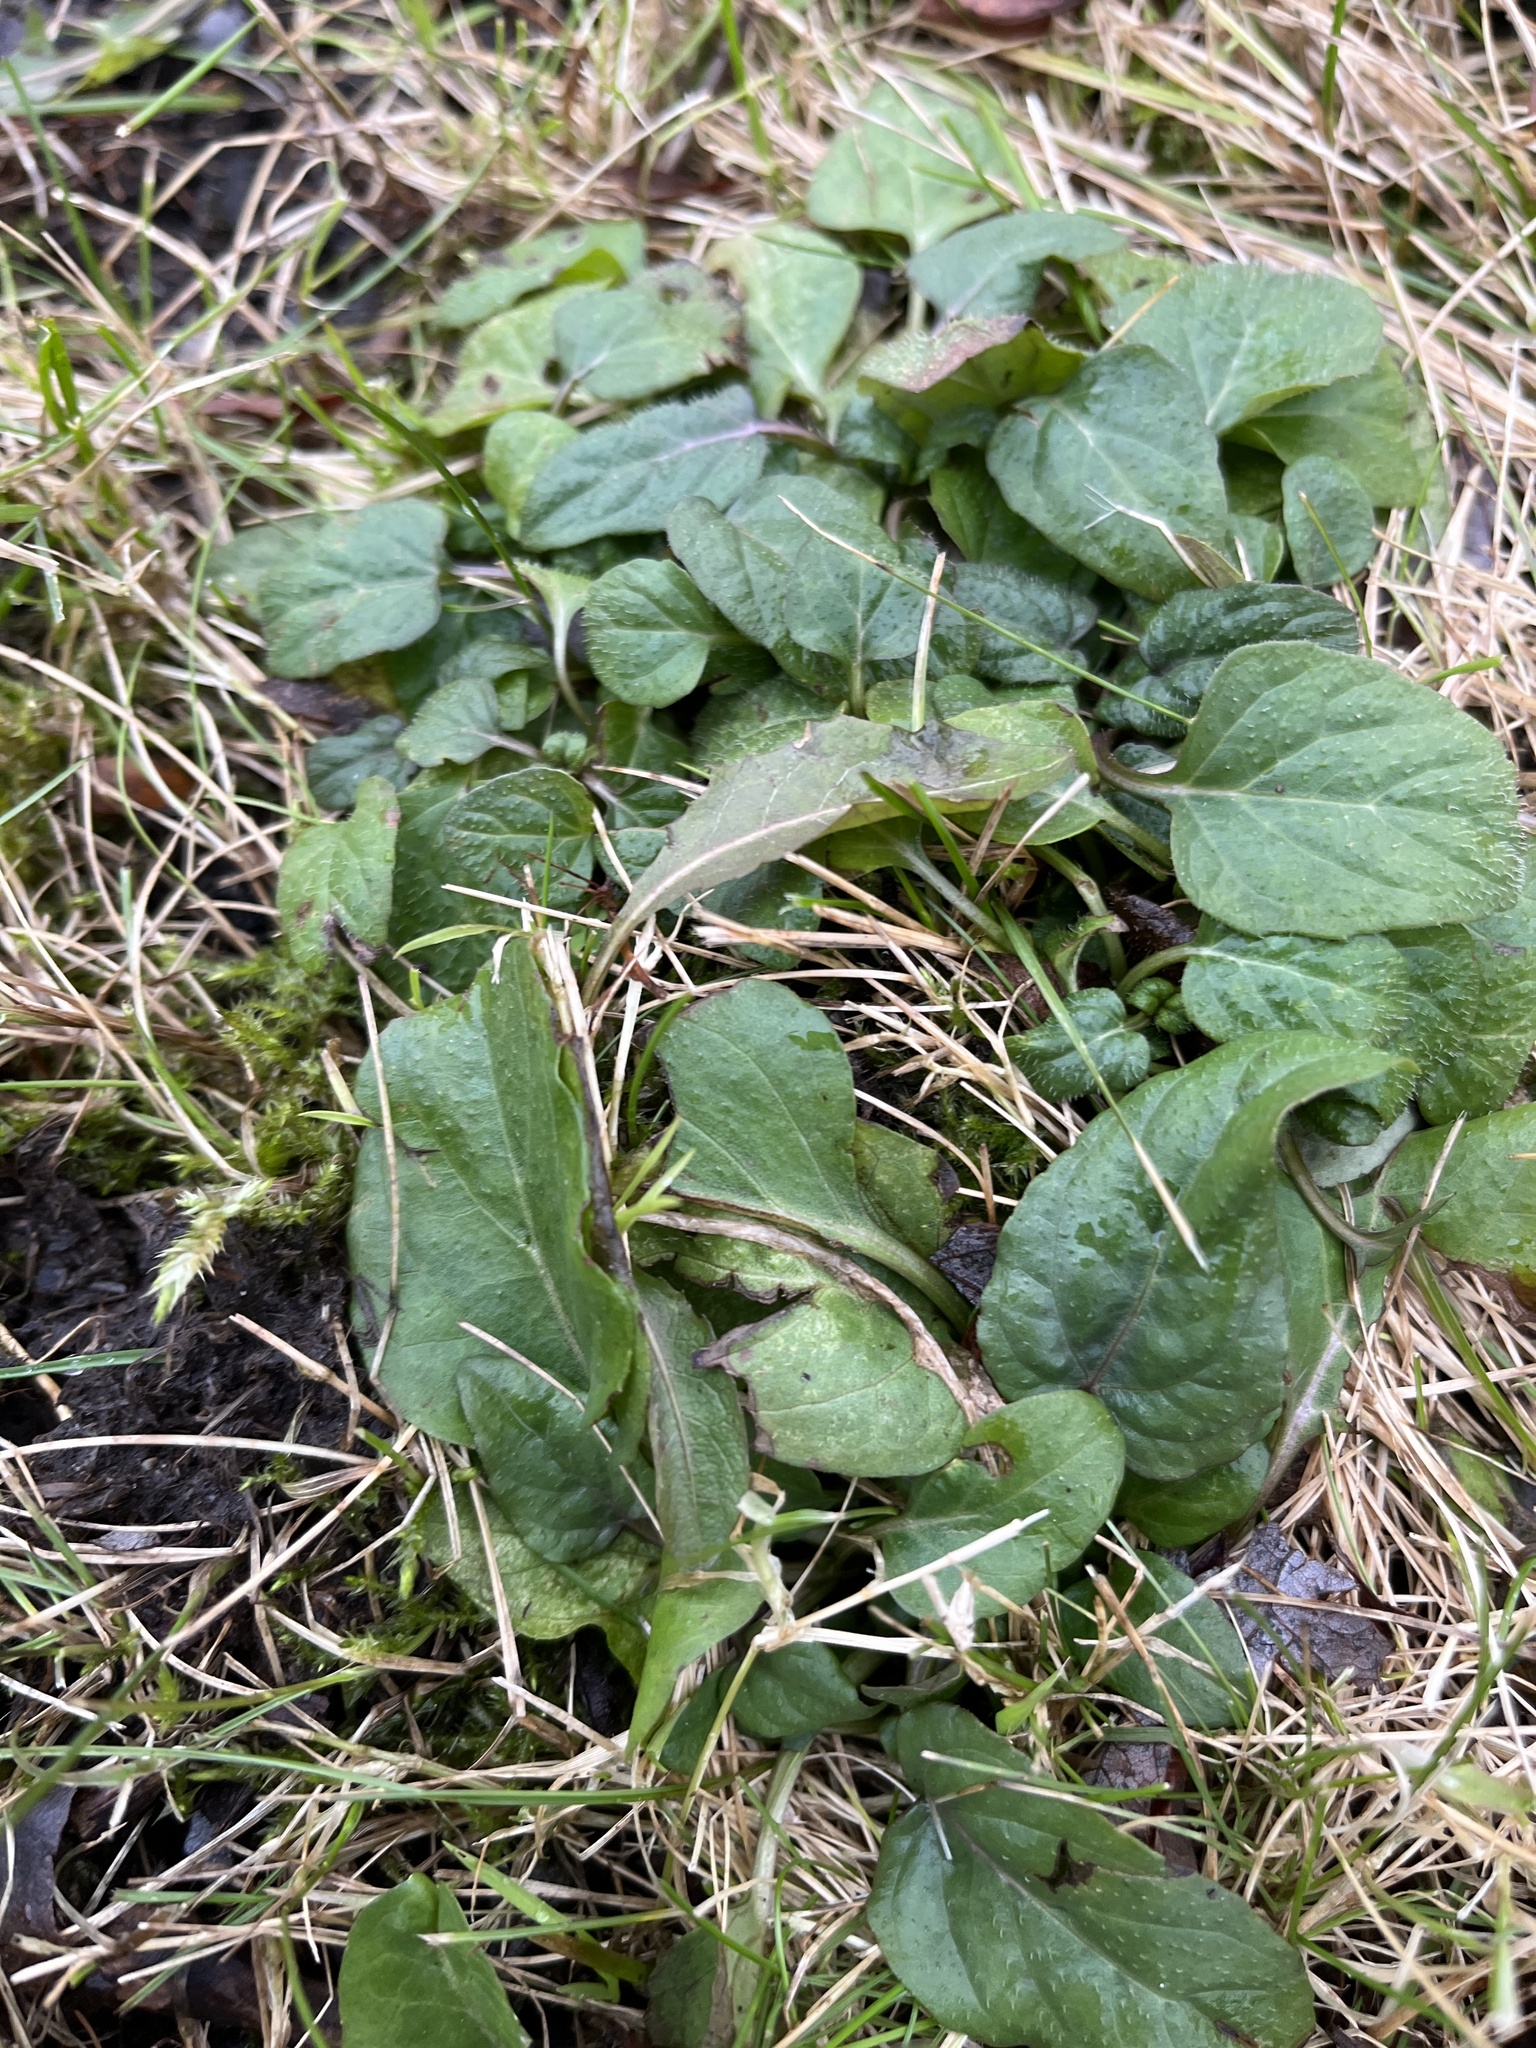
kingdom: Plantae
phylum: Tracheophyta
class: Magnoliopsida
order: Lamiales
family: Lamiaceae
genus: Prunella
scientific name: Prunella vulgaris
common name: Heal-all
